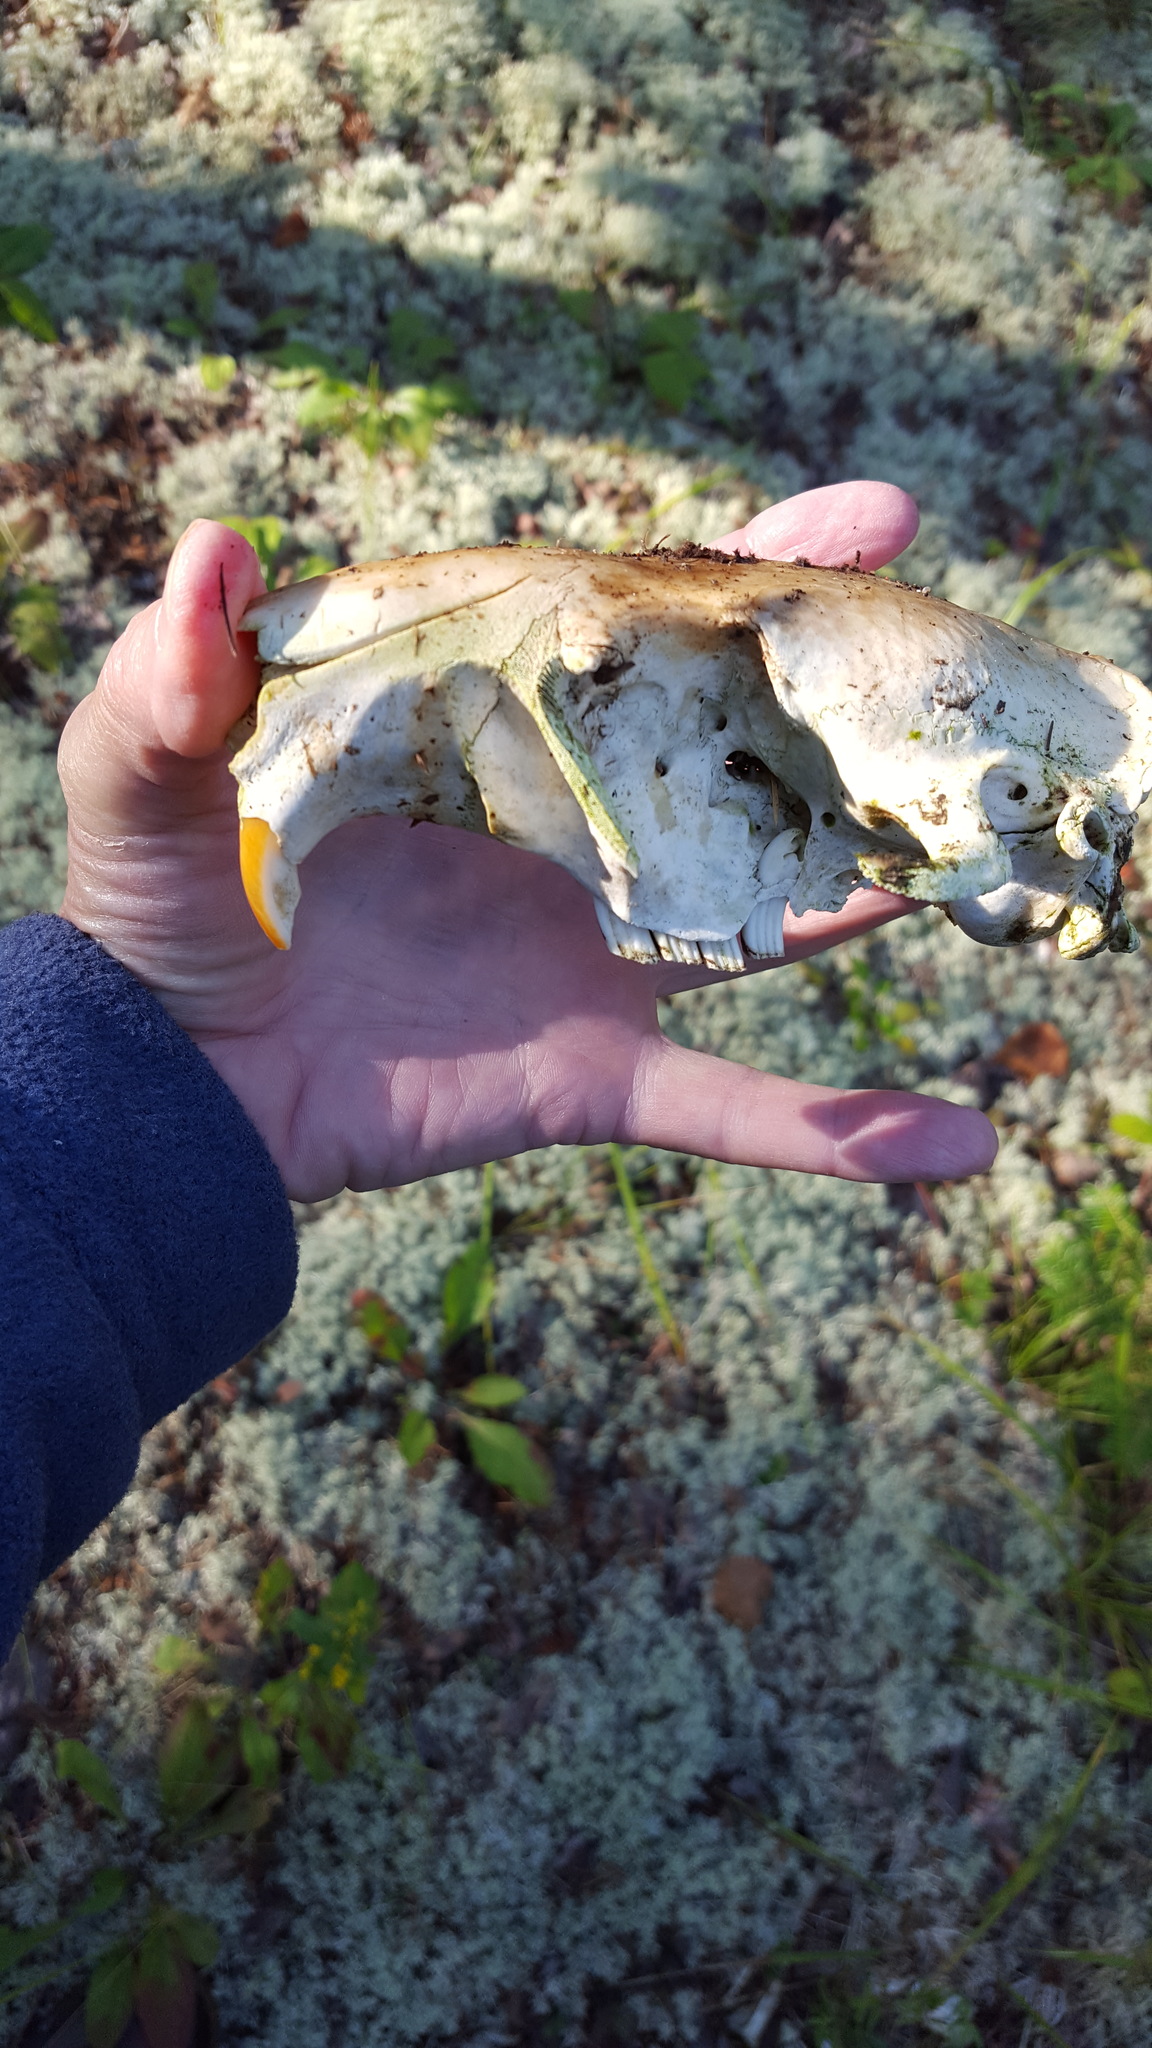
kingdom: Animalia
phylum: Chordata
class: Mammalia
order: Rodentia
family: Castoridae
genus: Castor
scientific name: Castor canadensis
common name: American beaver
